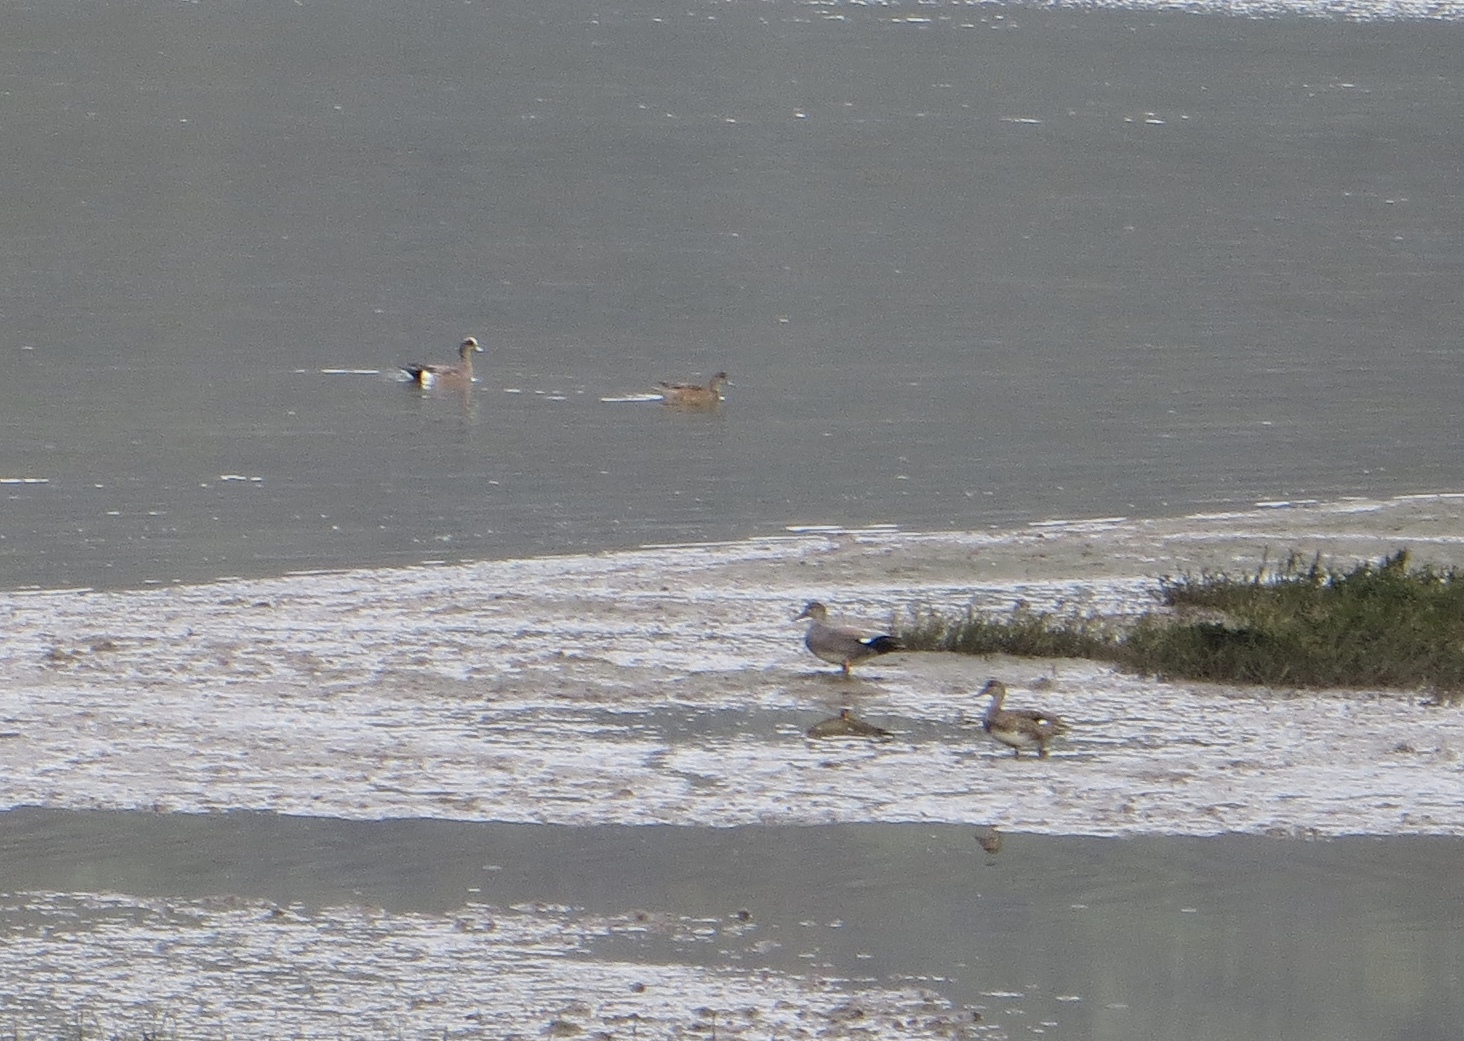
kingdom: Animalia
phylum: Chordata
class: Aves
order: Anseriformes
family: Anatidae
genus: Mareca
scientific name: Mareca strepera
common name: Gadwall
